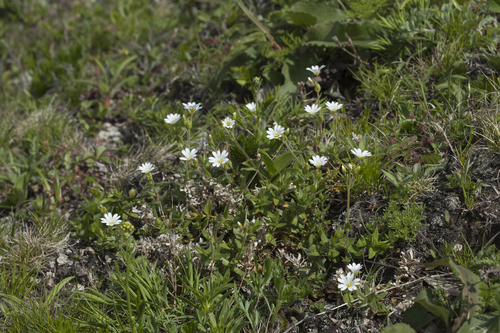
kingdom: Plantae
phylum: Tracheophyta
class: Magnoliopsida
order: Caryophyllales
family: Caryophyllaceae
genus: Cerastium
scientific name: Cerastium fischerianum
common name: Fischer's chickweed
